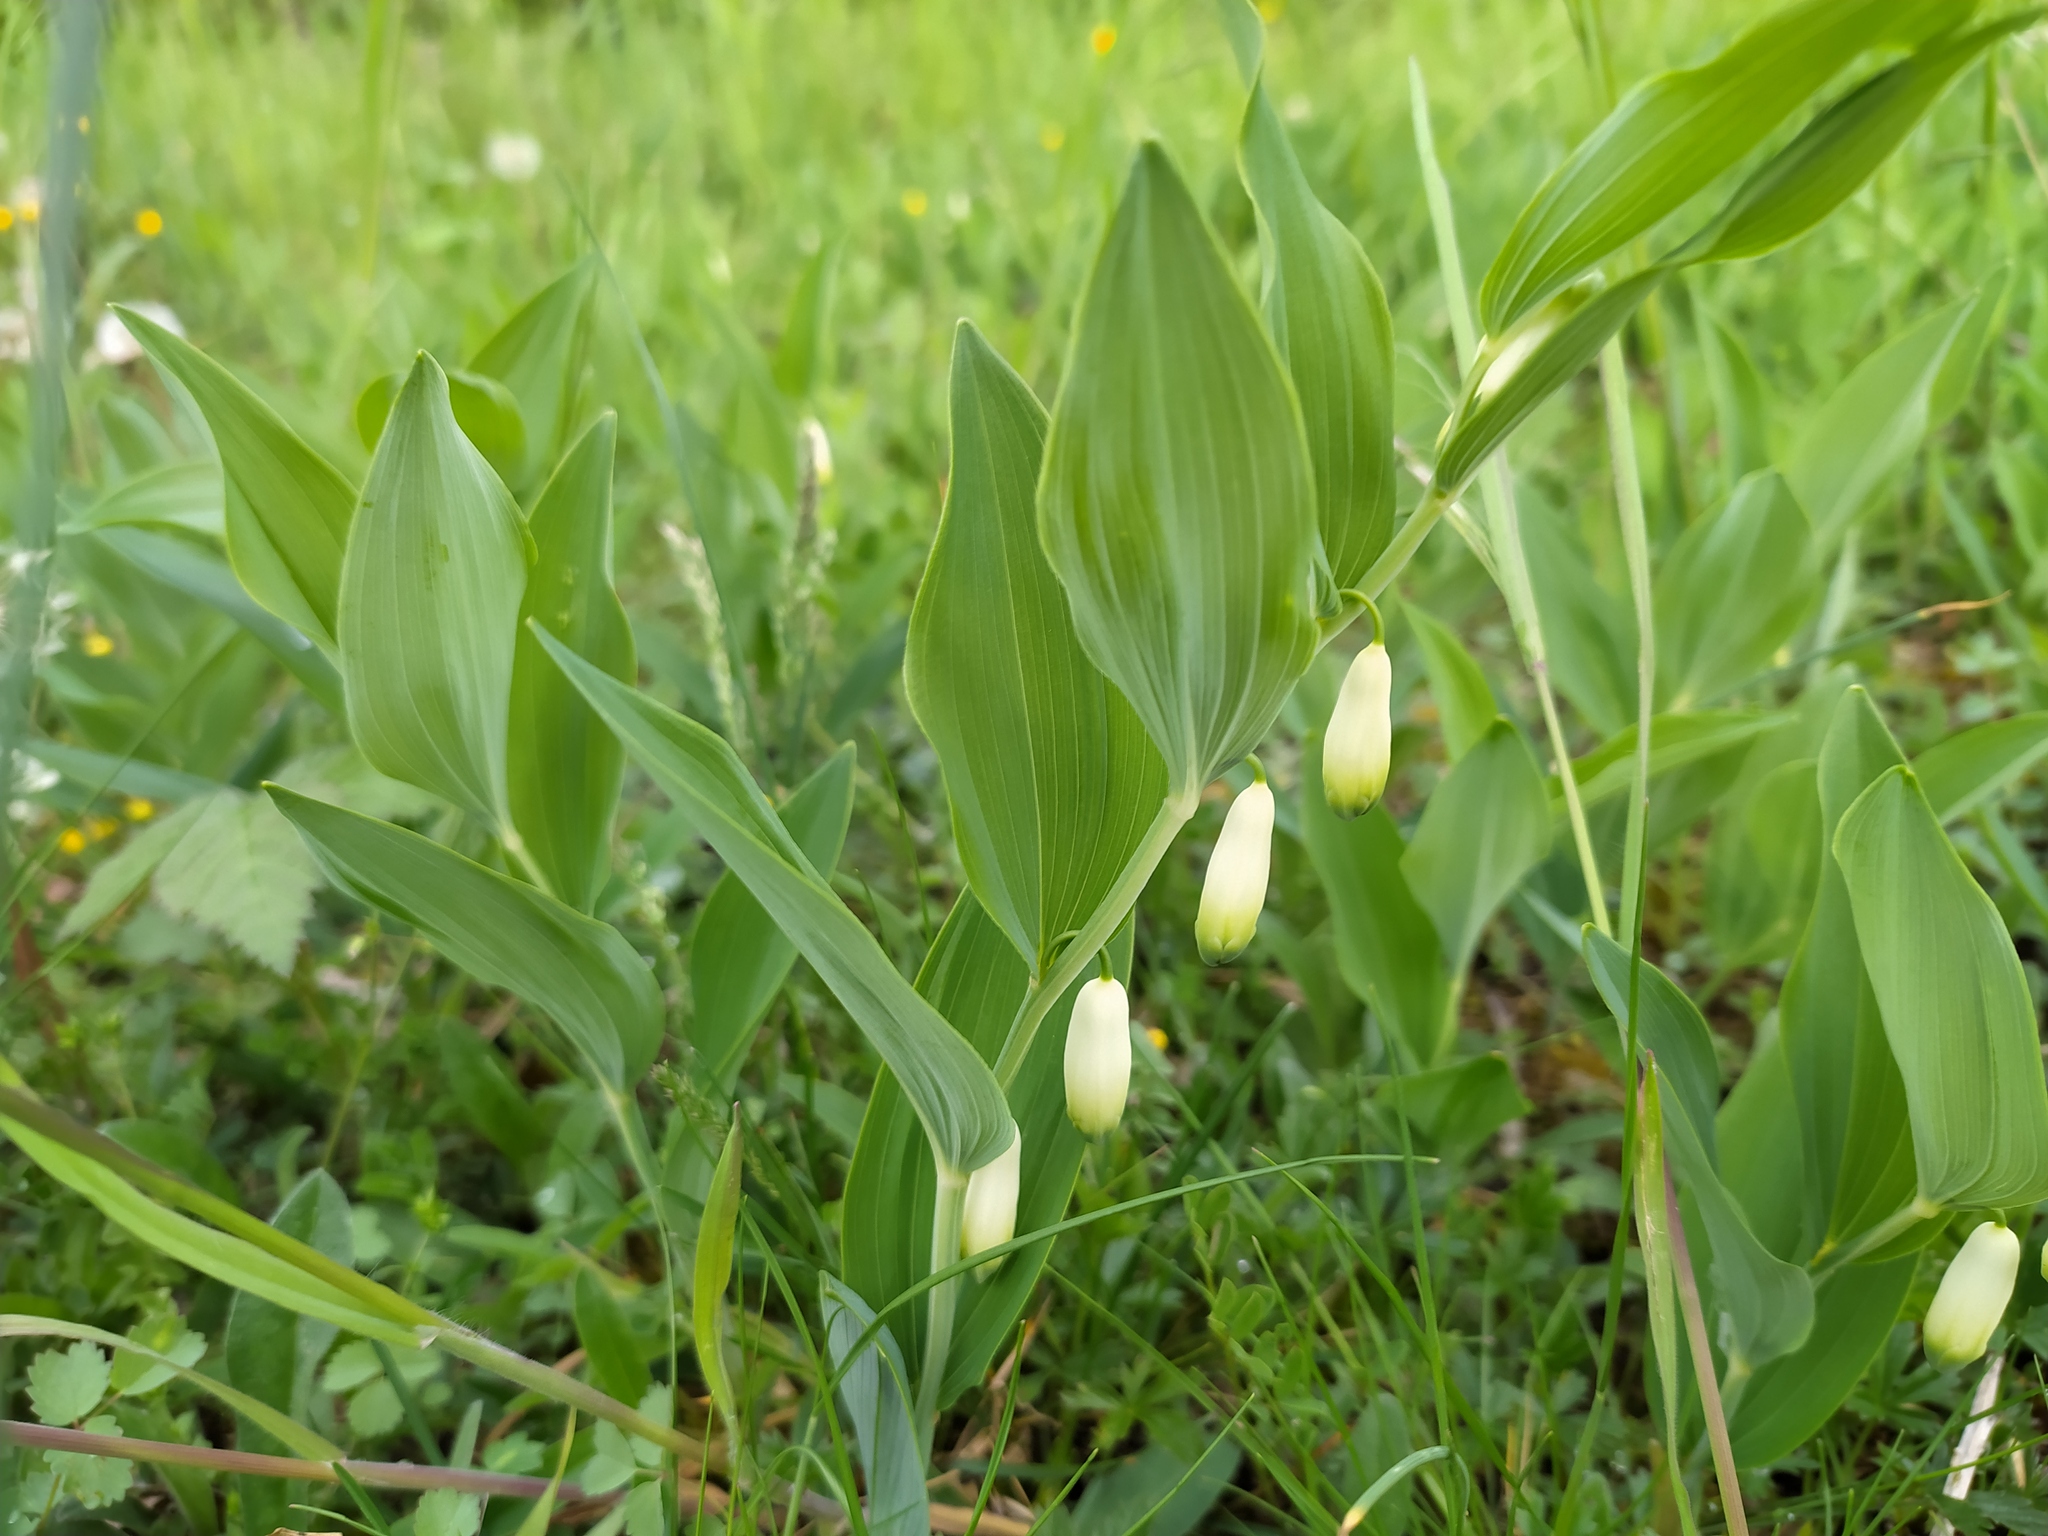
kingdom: Plantae
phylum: Tracheophyta
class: Liliopsida
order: Asparagales
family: Asparagaceae
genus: Polygonatum
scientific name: Polygonatum odoratum
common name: Angular solomon's-seal
